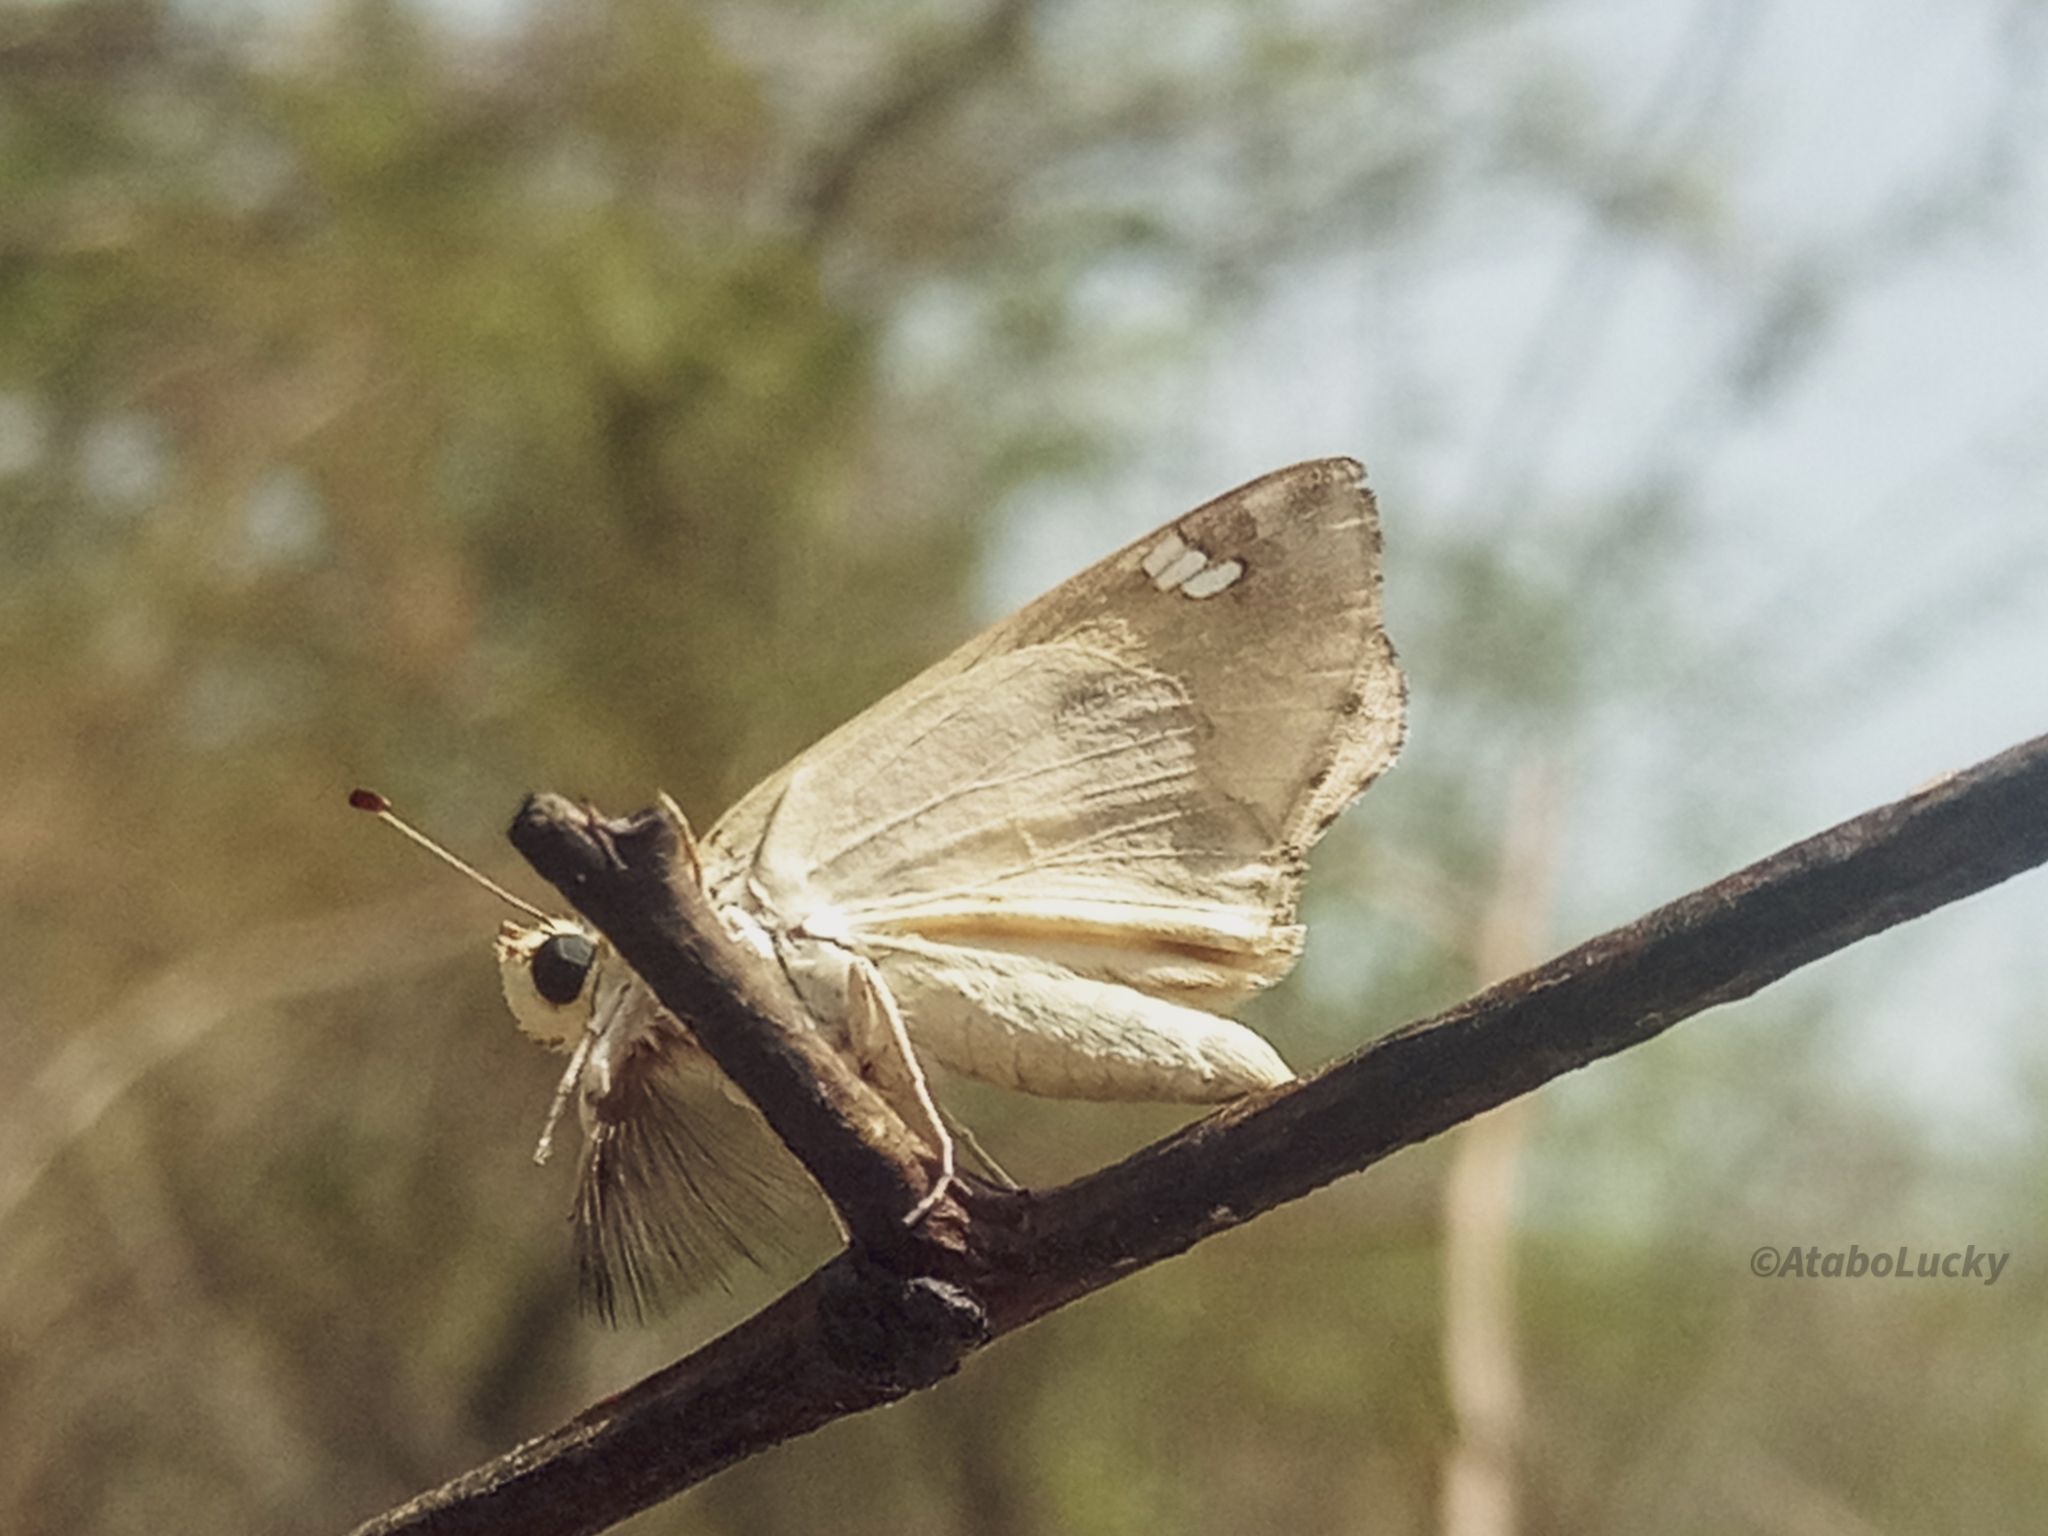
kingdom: Animalia
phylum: Arthropoda
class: Insecta
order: Lepidoptera
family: Hesperiidae
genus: Abantis
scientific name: Abantis
